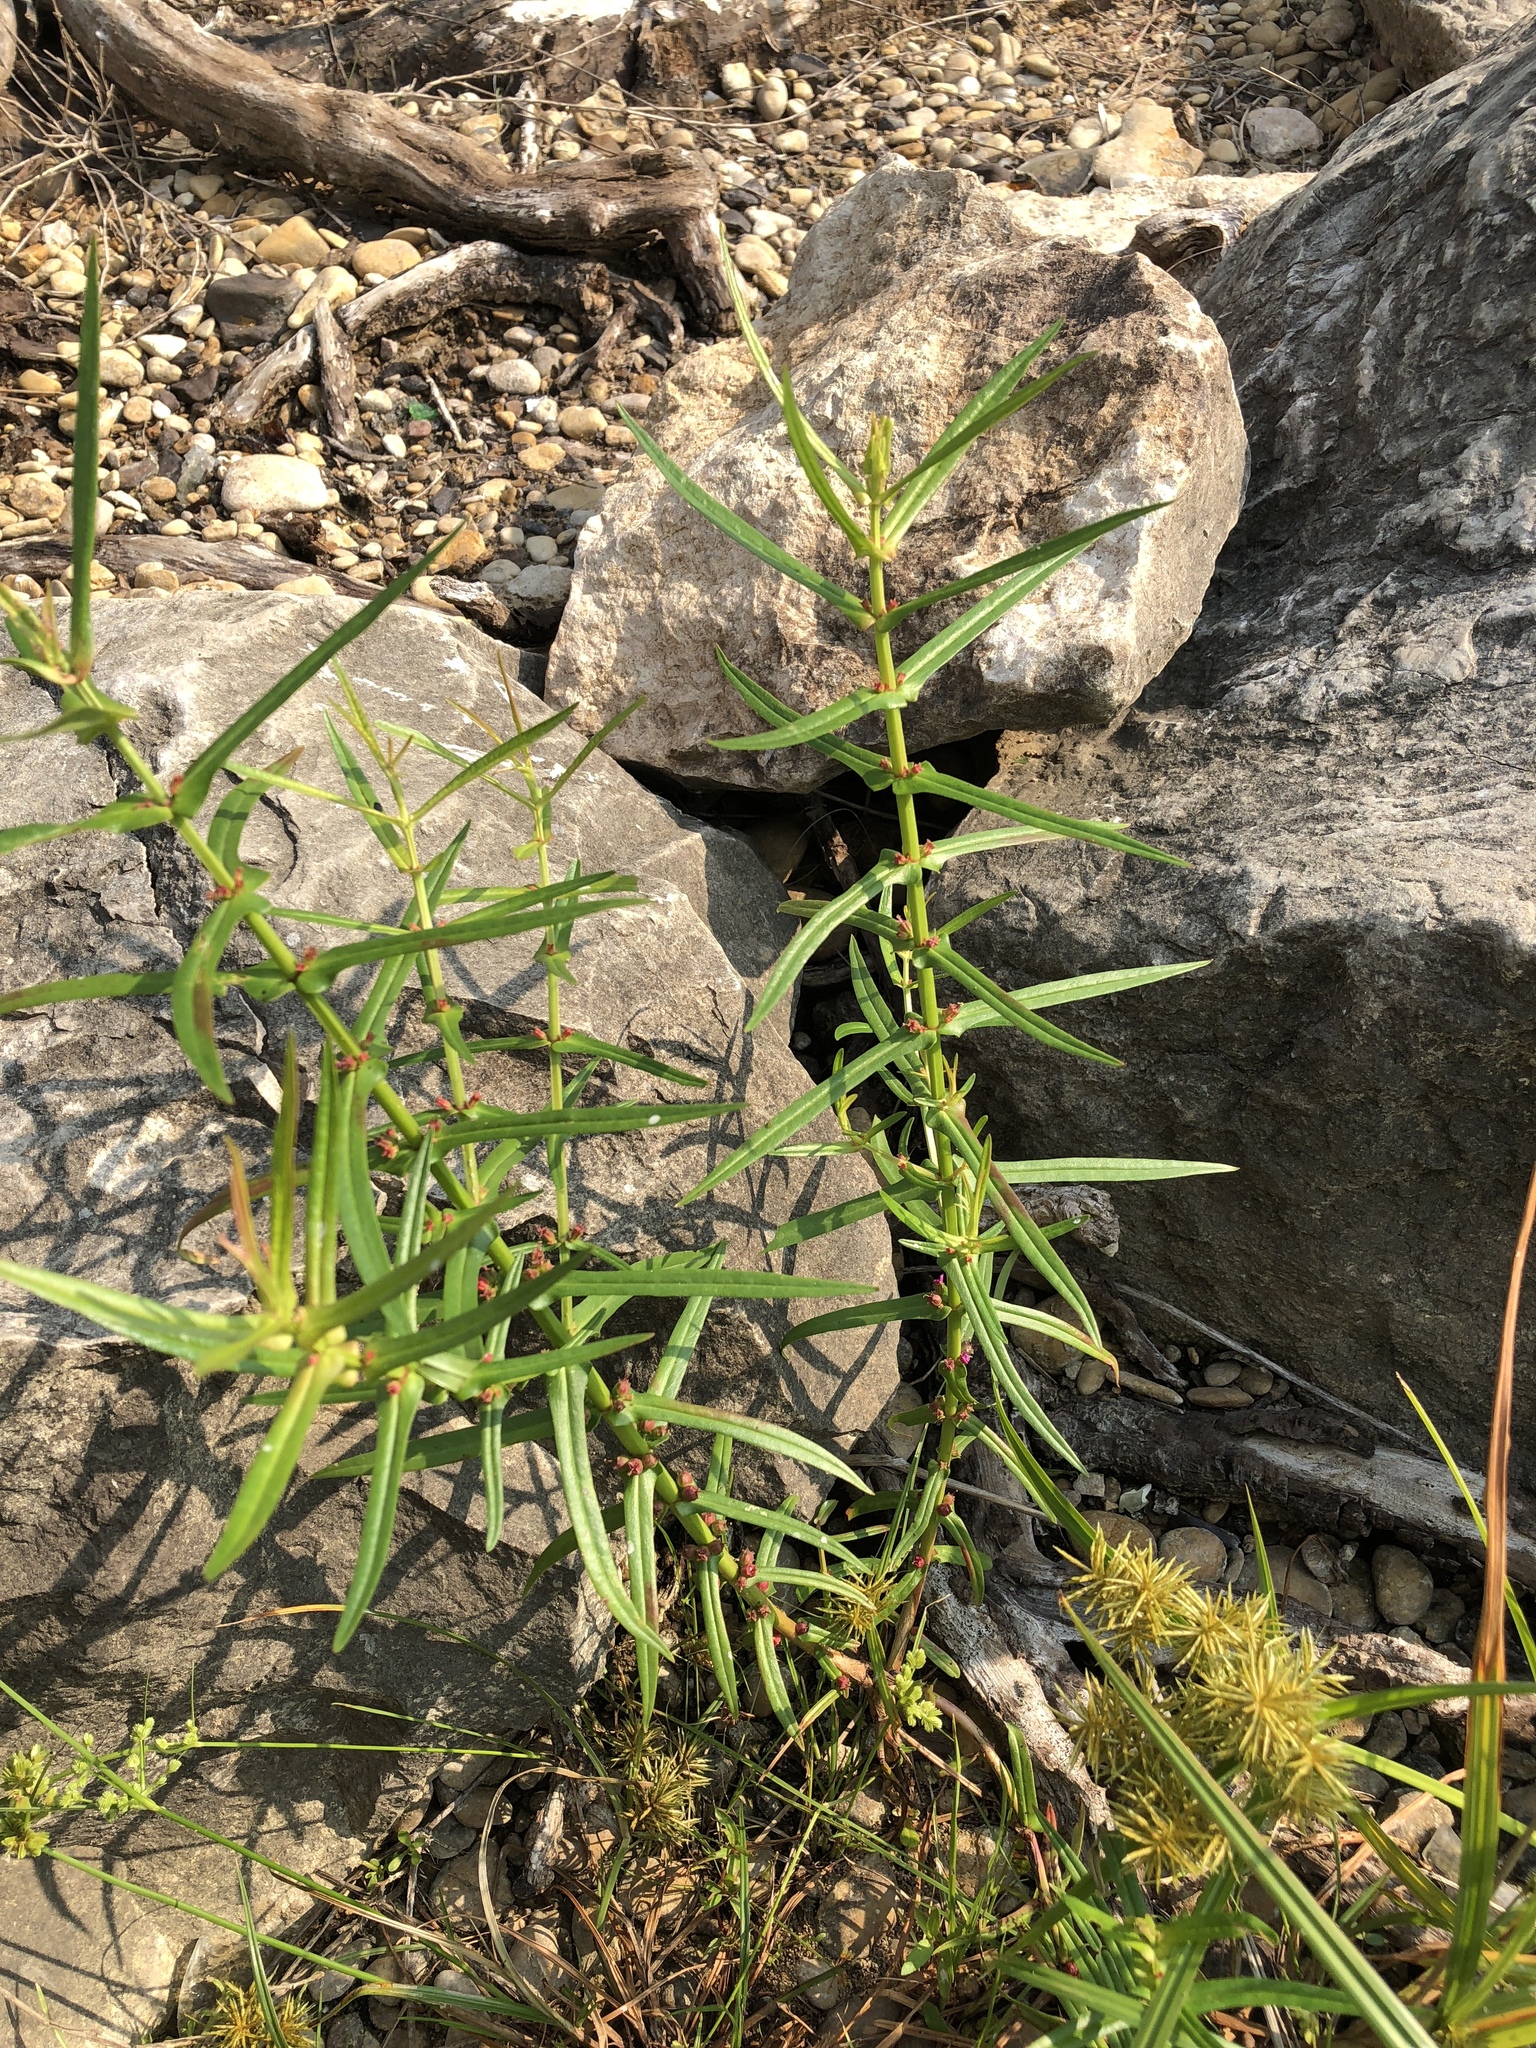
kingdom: Plantae
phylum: Tracheophyta
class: Magnoliopsida
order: Myrtales
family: Lythraceae
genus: Ammannia
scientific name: Ammannia coccinea
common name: Valley redstem
